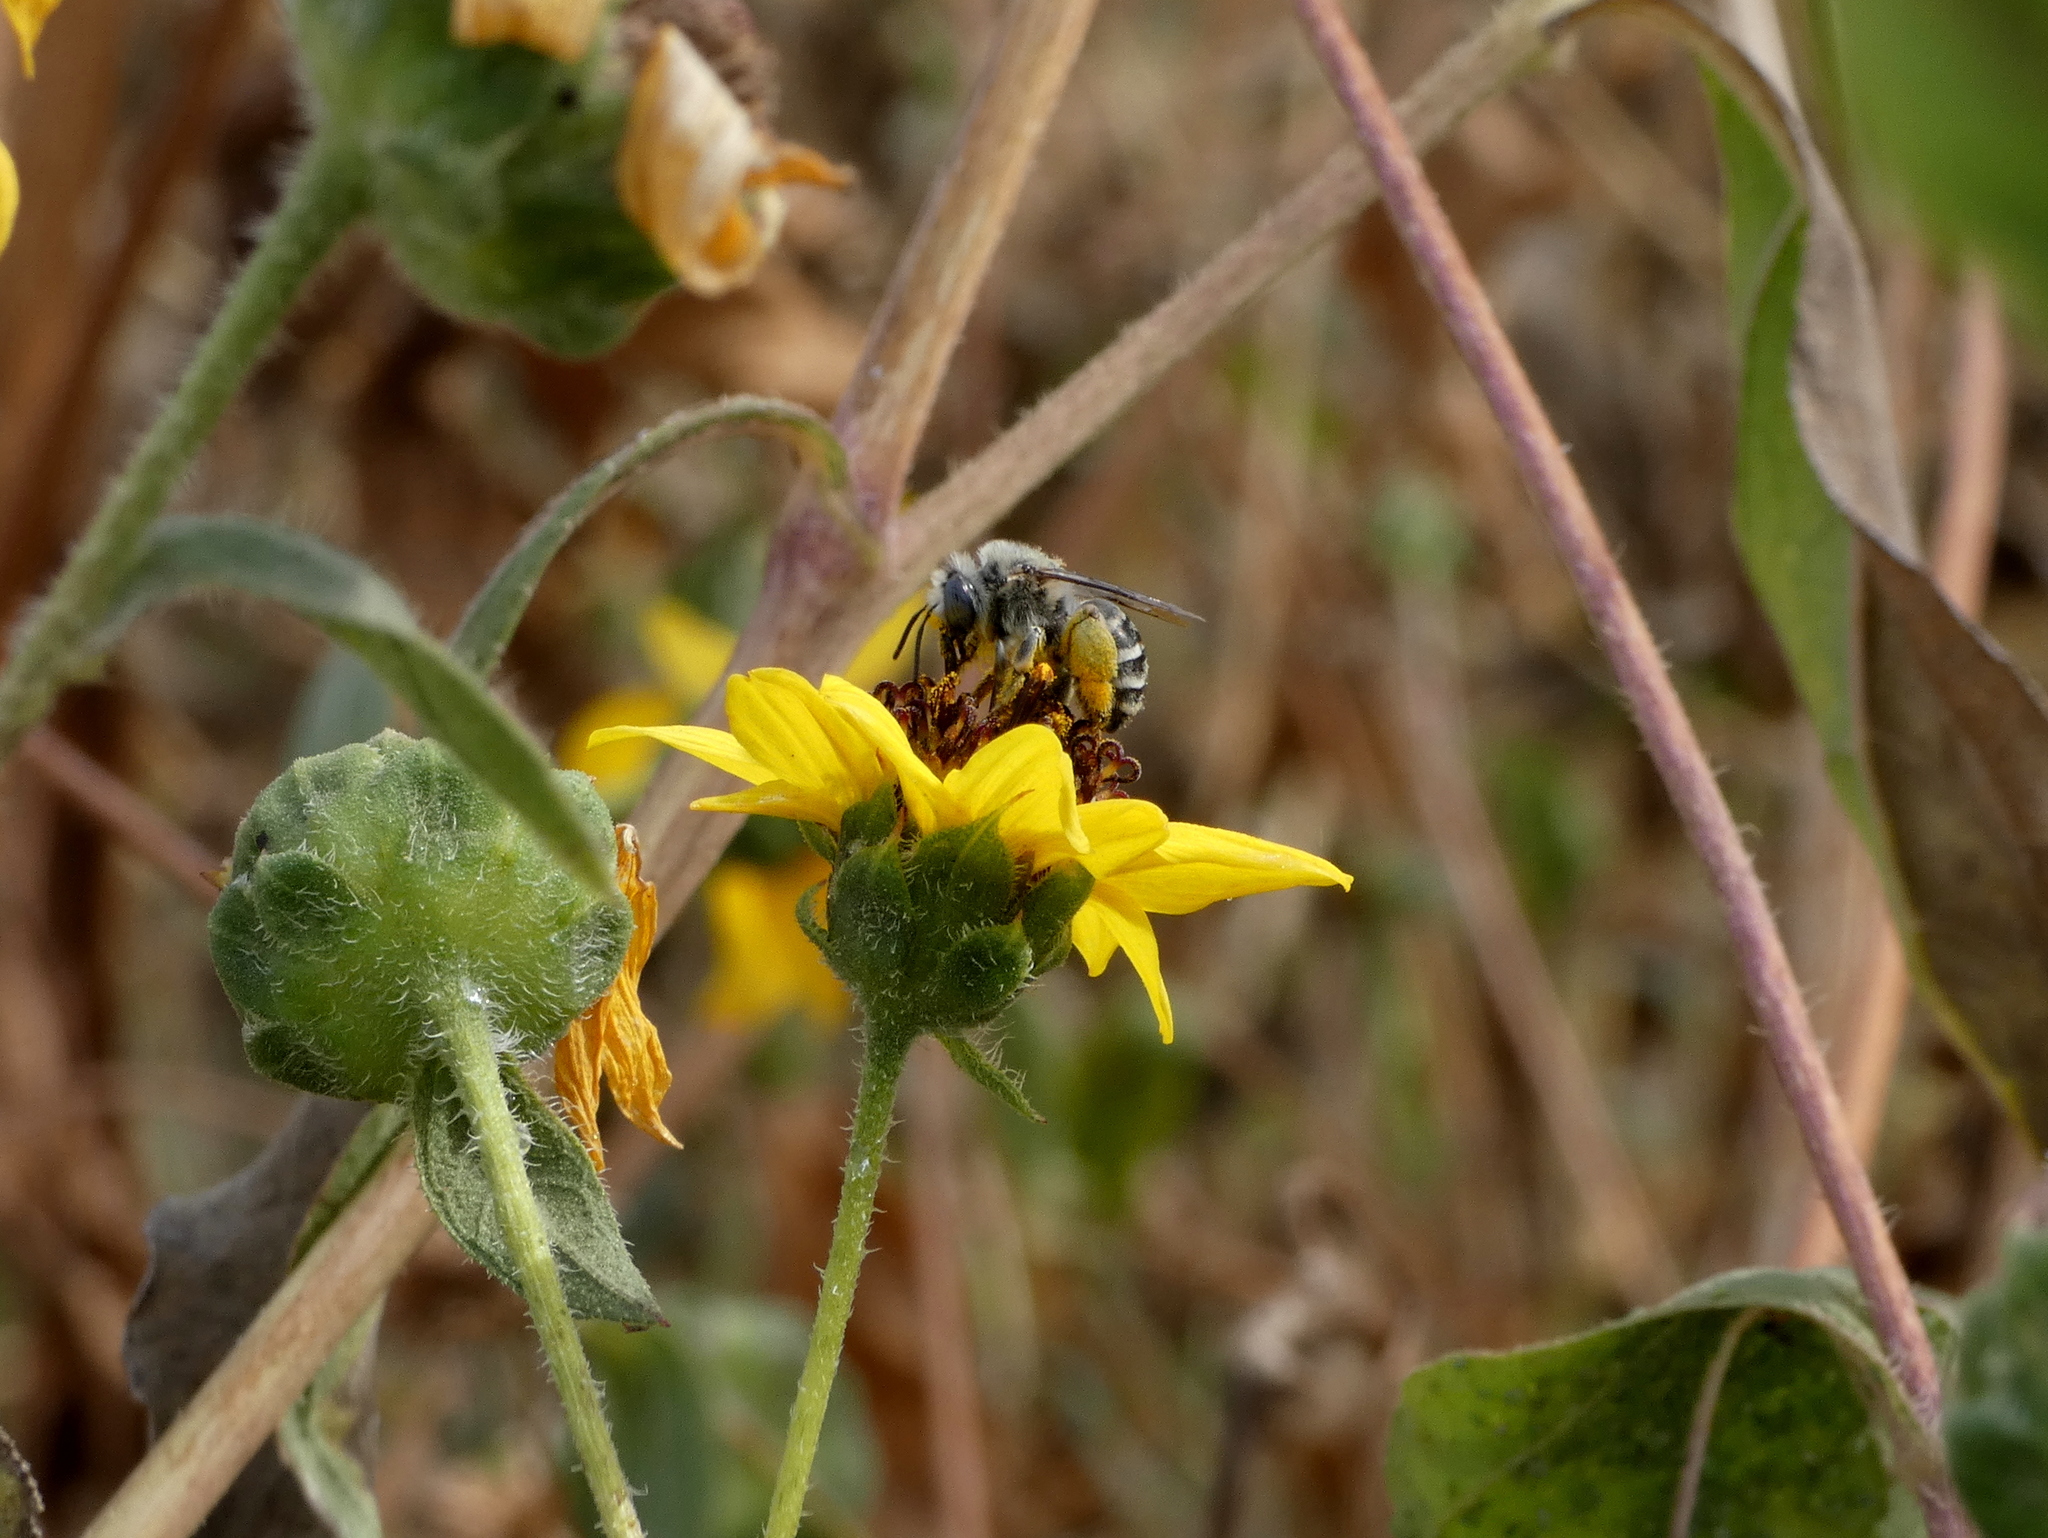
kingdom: Animalia
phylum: Arthropoda
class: Insecta
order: Hymenoptera
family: Apidae
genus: Anthophora
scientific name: Anthophora urbana
